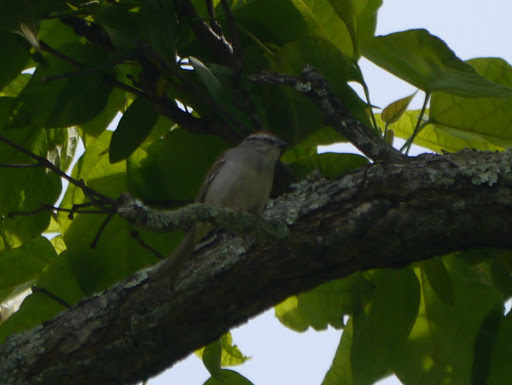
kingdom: Animalia
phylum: Chordata
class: Aves
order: Passeriformes
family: Passerellidae
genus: Spizella
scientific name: Spizella passerina
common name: Chipping sparrow
